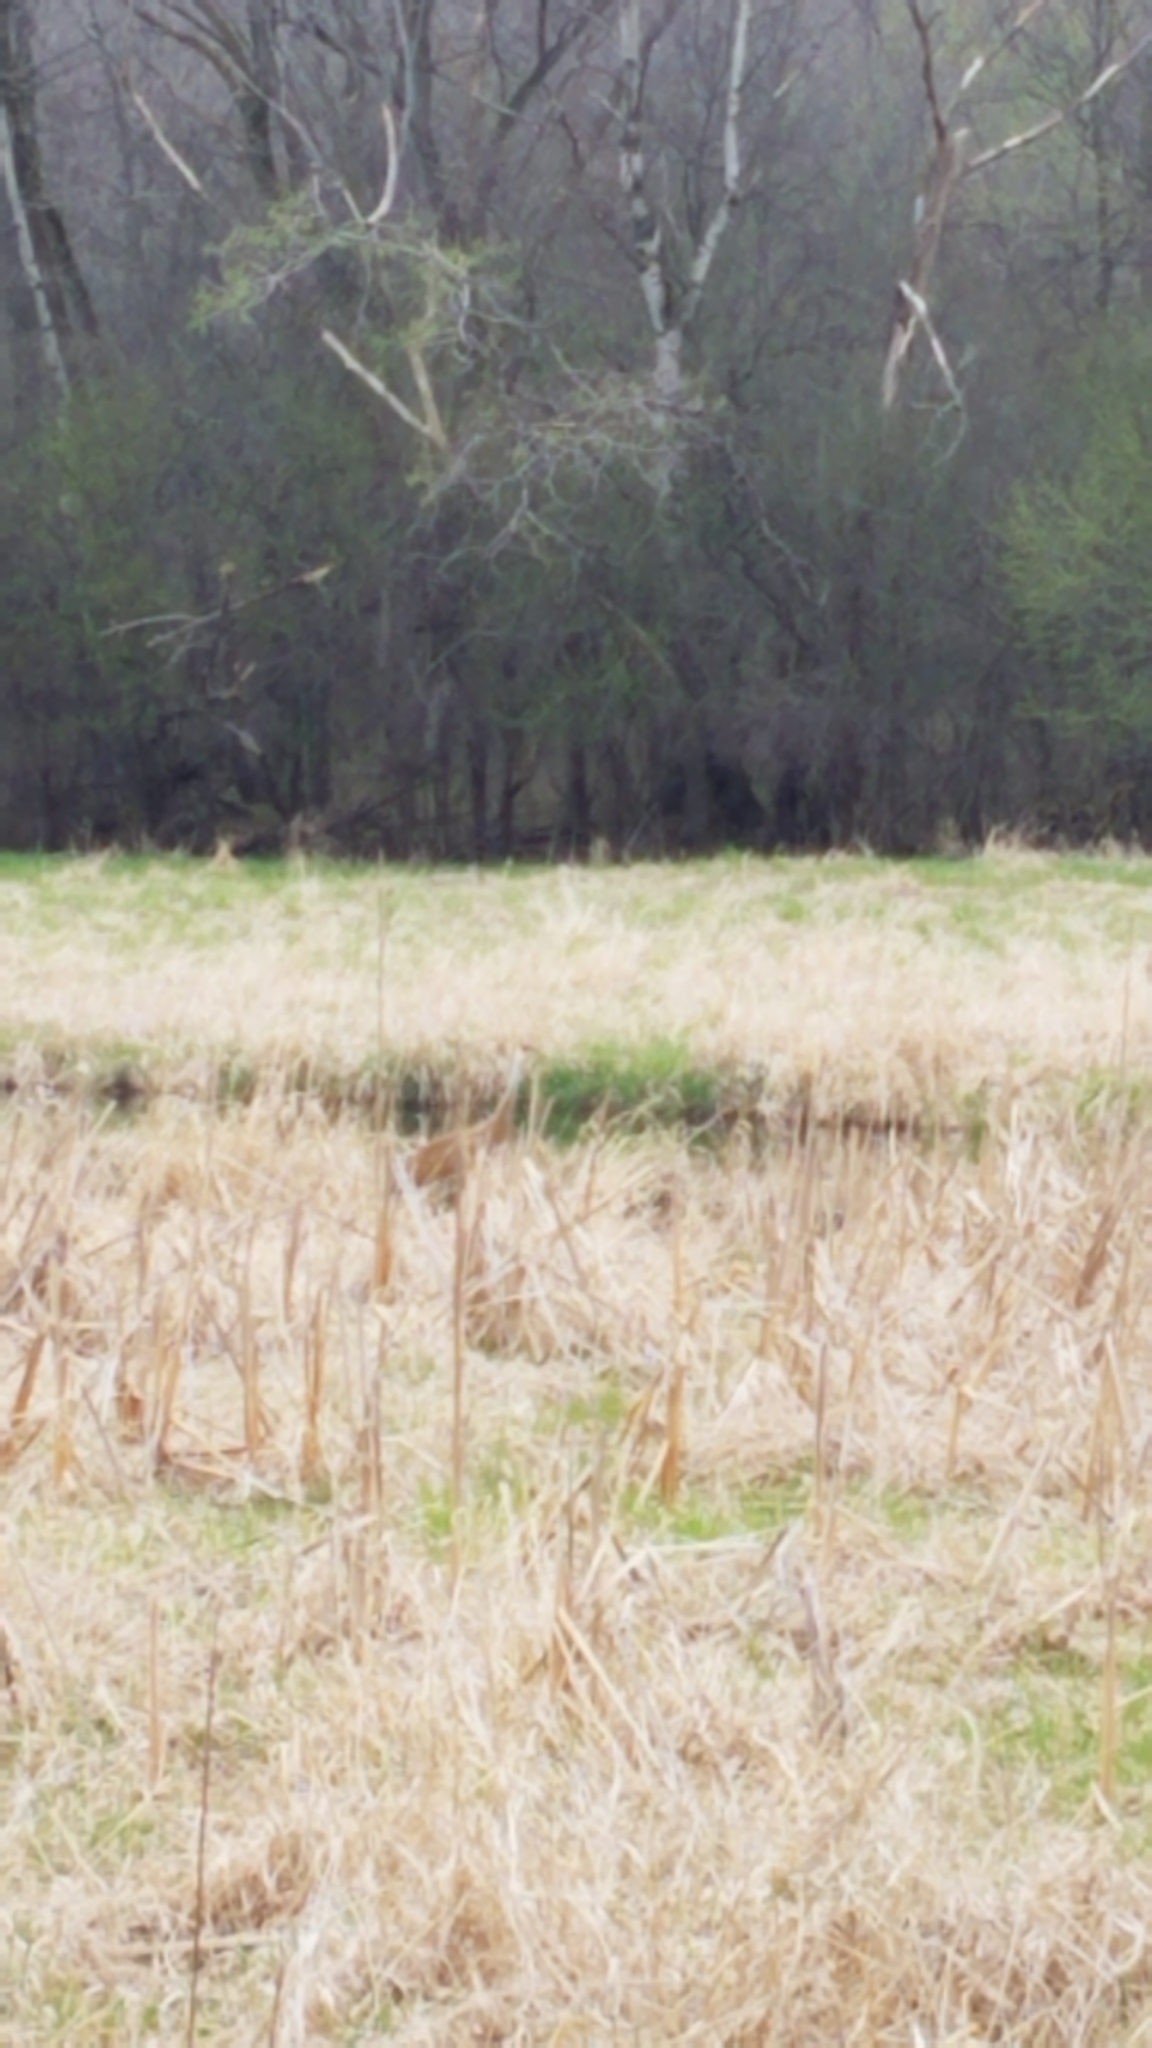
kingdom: Animalia
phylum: Chordata
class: Aves
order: Gruiformes
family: Gruidae
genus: Grus
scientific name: Grus canadensis
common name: Sandhill crane
